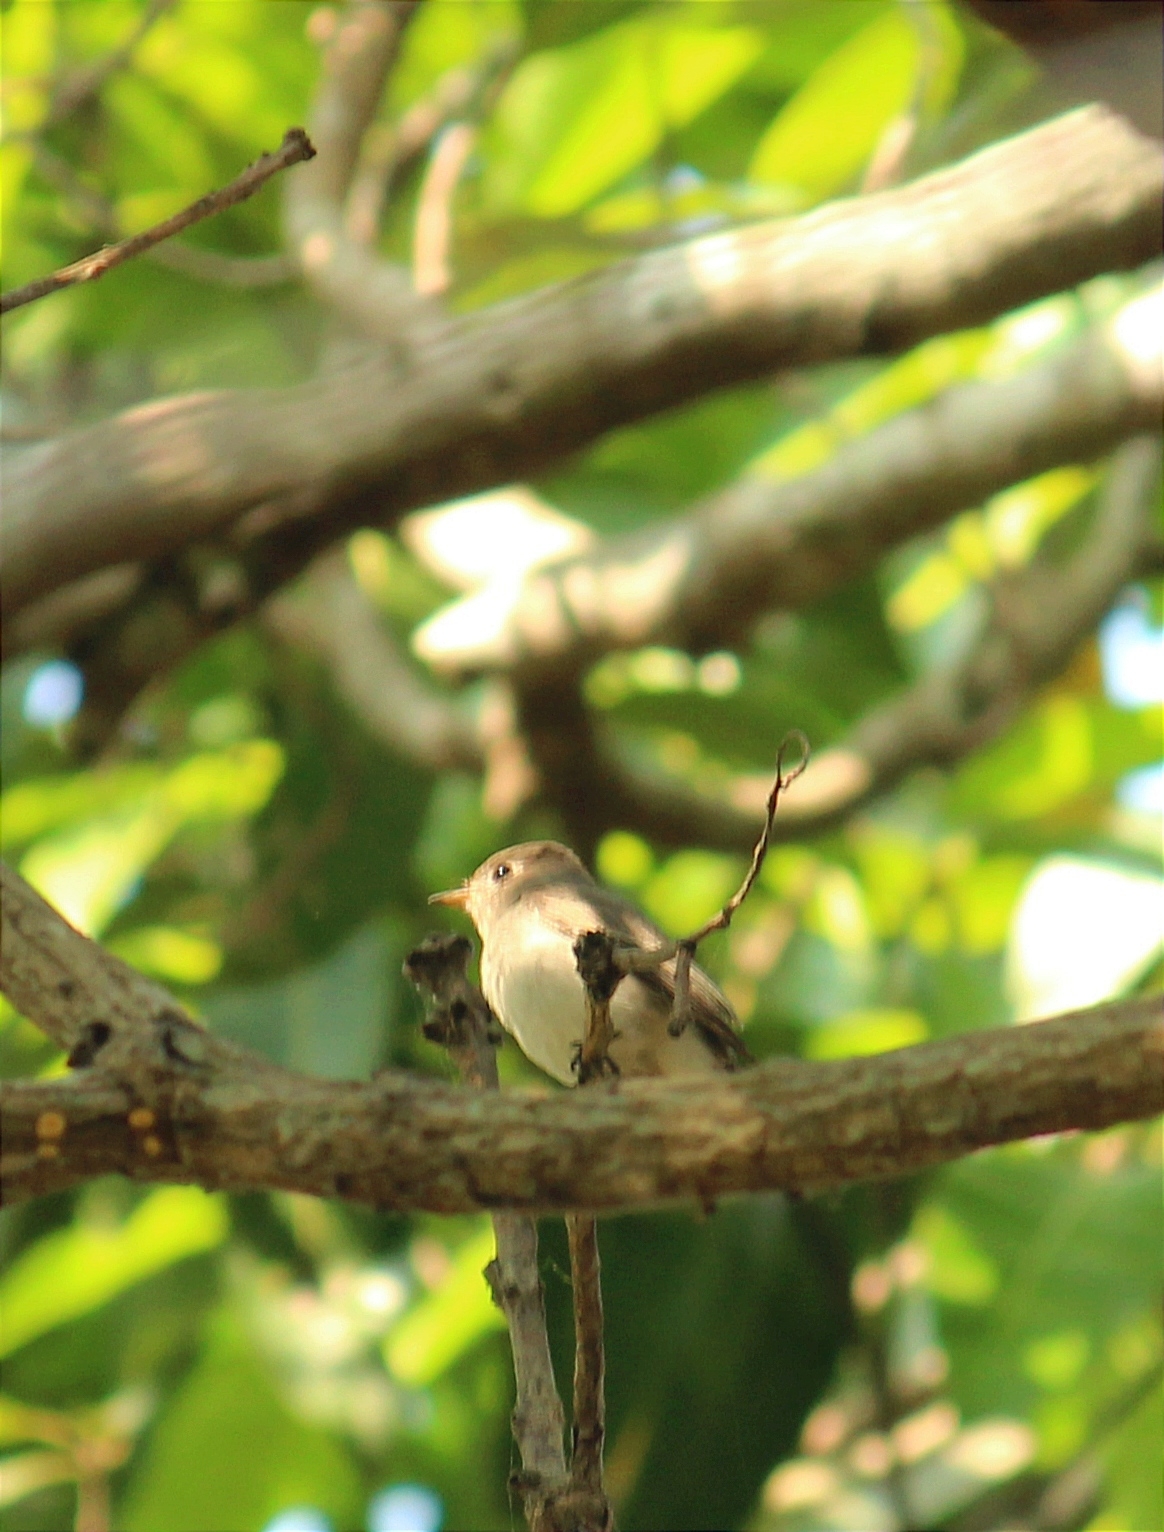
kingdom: Animalia
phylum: Chordata
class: Aves
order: Passeriformes
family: Muscicapidae
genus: Muscicapa
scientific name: Muscicapa latirostris
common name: Asian brown flycatcher
